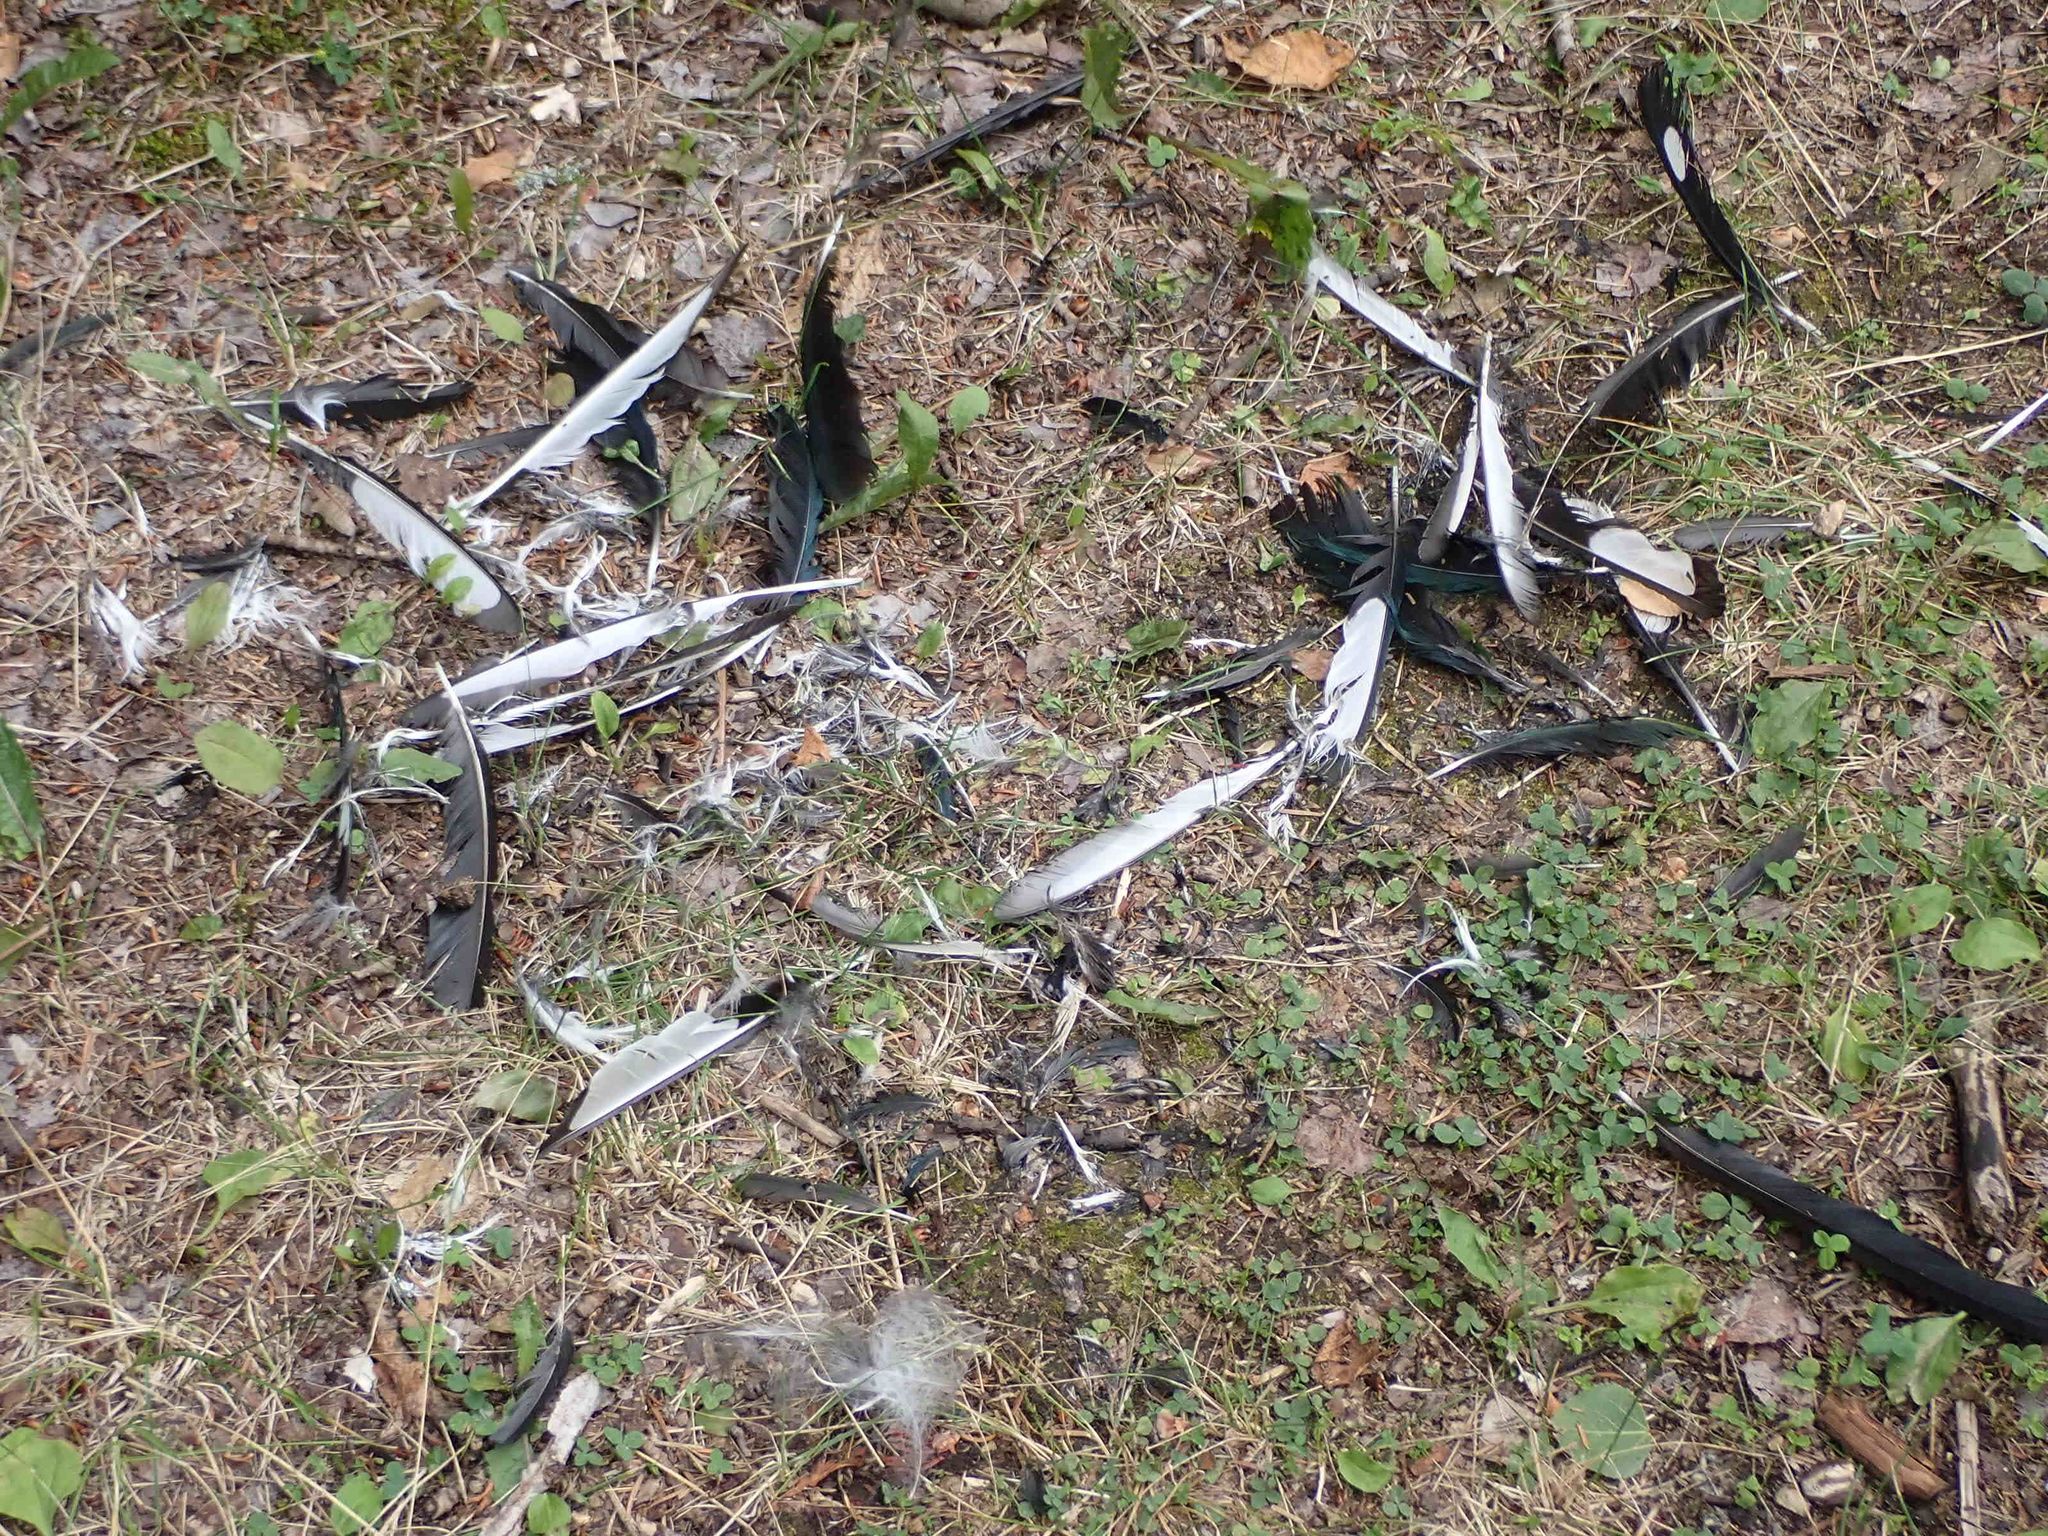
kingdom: Animalia
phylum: Chordata
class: Aves
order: Passeriformes
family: Corvidae
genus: Pica
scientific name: Pica hudsonia
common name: Black-billed magpie
